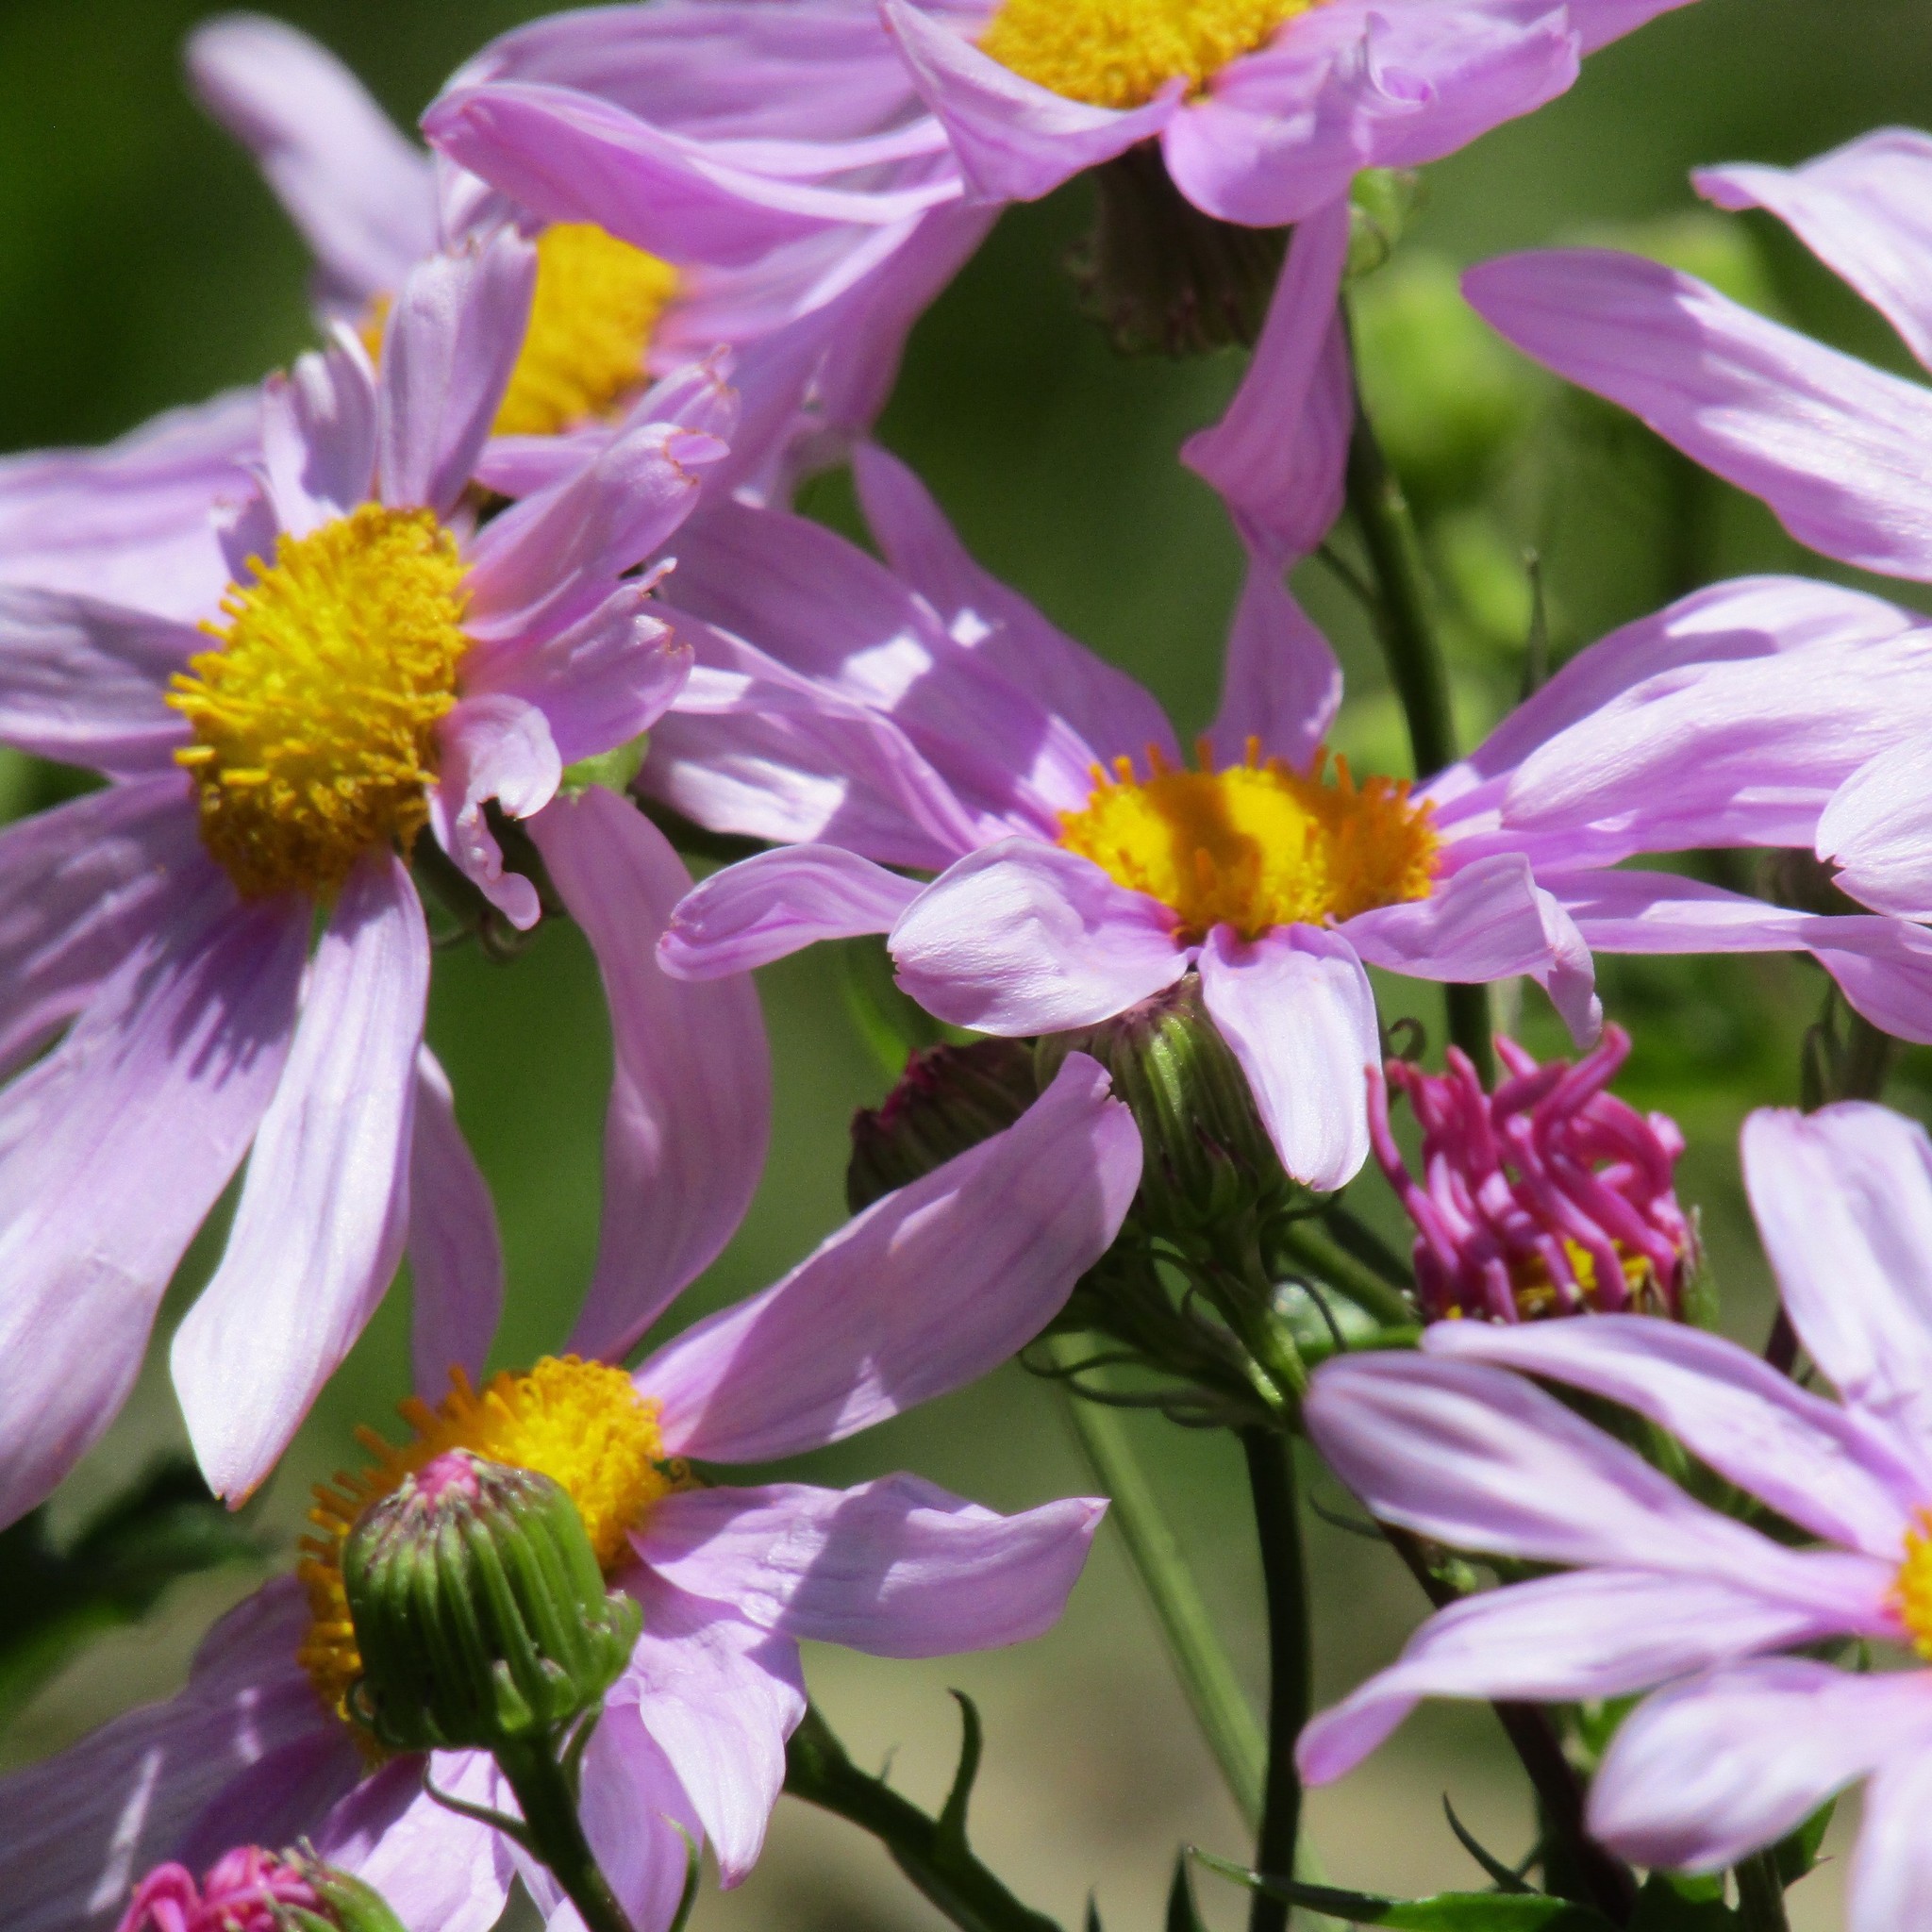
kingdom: Plantae
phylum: Tracheophyta
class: Magnoliopsida
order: Asterales
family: Asteraceae
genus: Senecio
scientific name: Senecio glastifolius
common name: Woad-leaved ragwort
